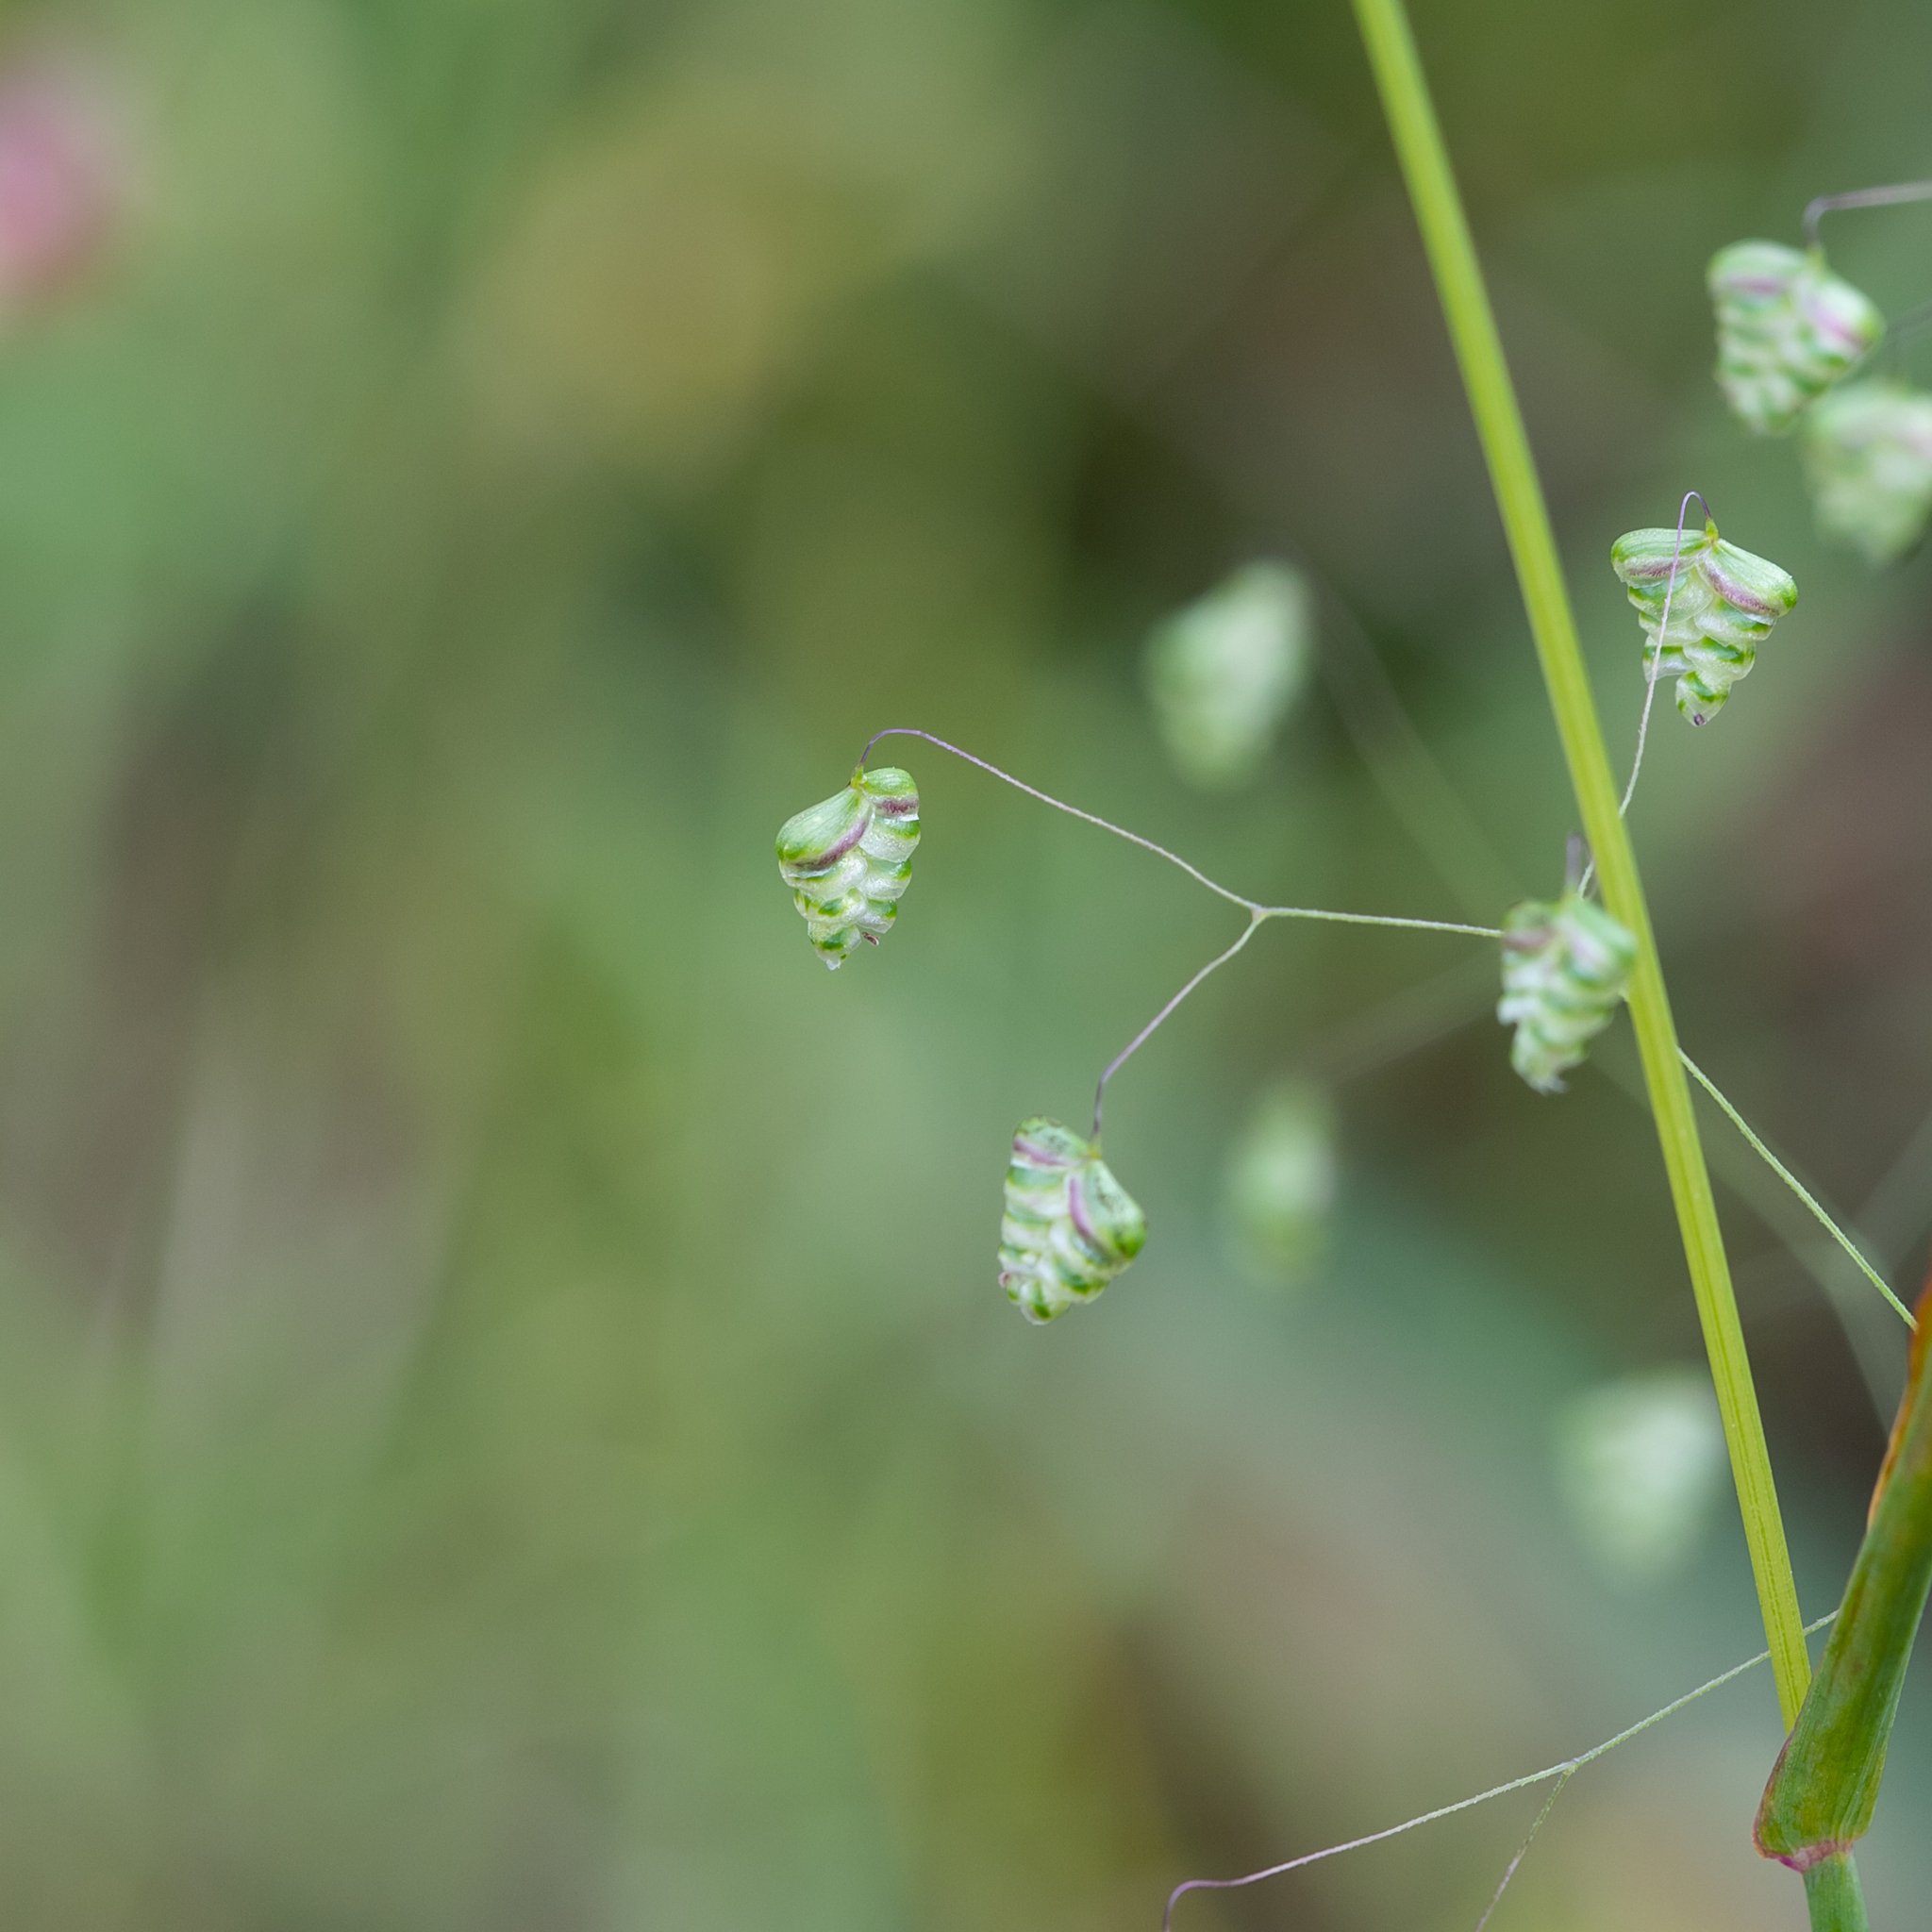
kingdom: Plantae
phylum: Tracheophyta
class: Liliopsida
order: Poales
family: Poaceae
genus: Briza
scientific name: Briza minor
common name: Lesser quaking-grass
